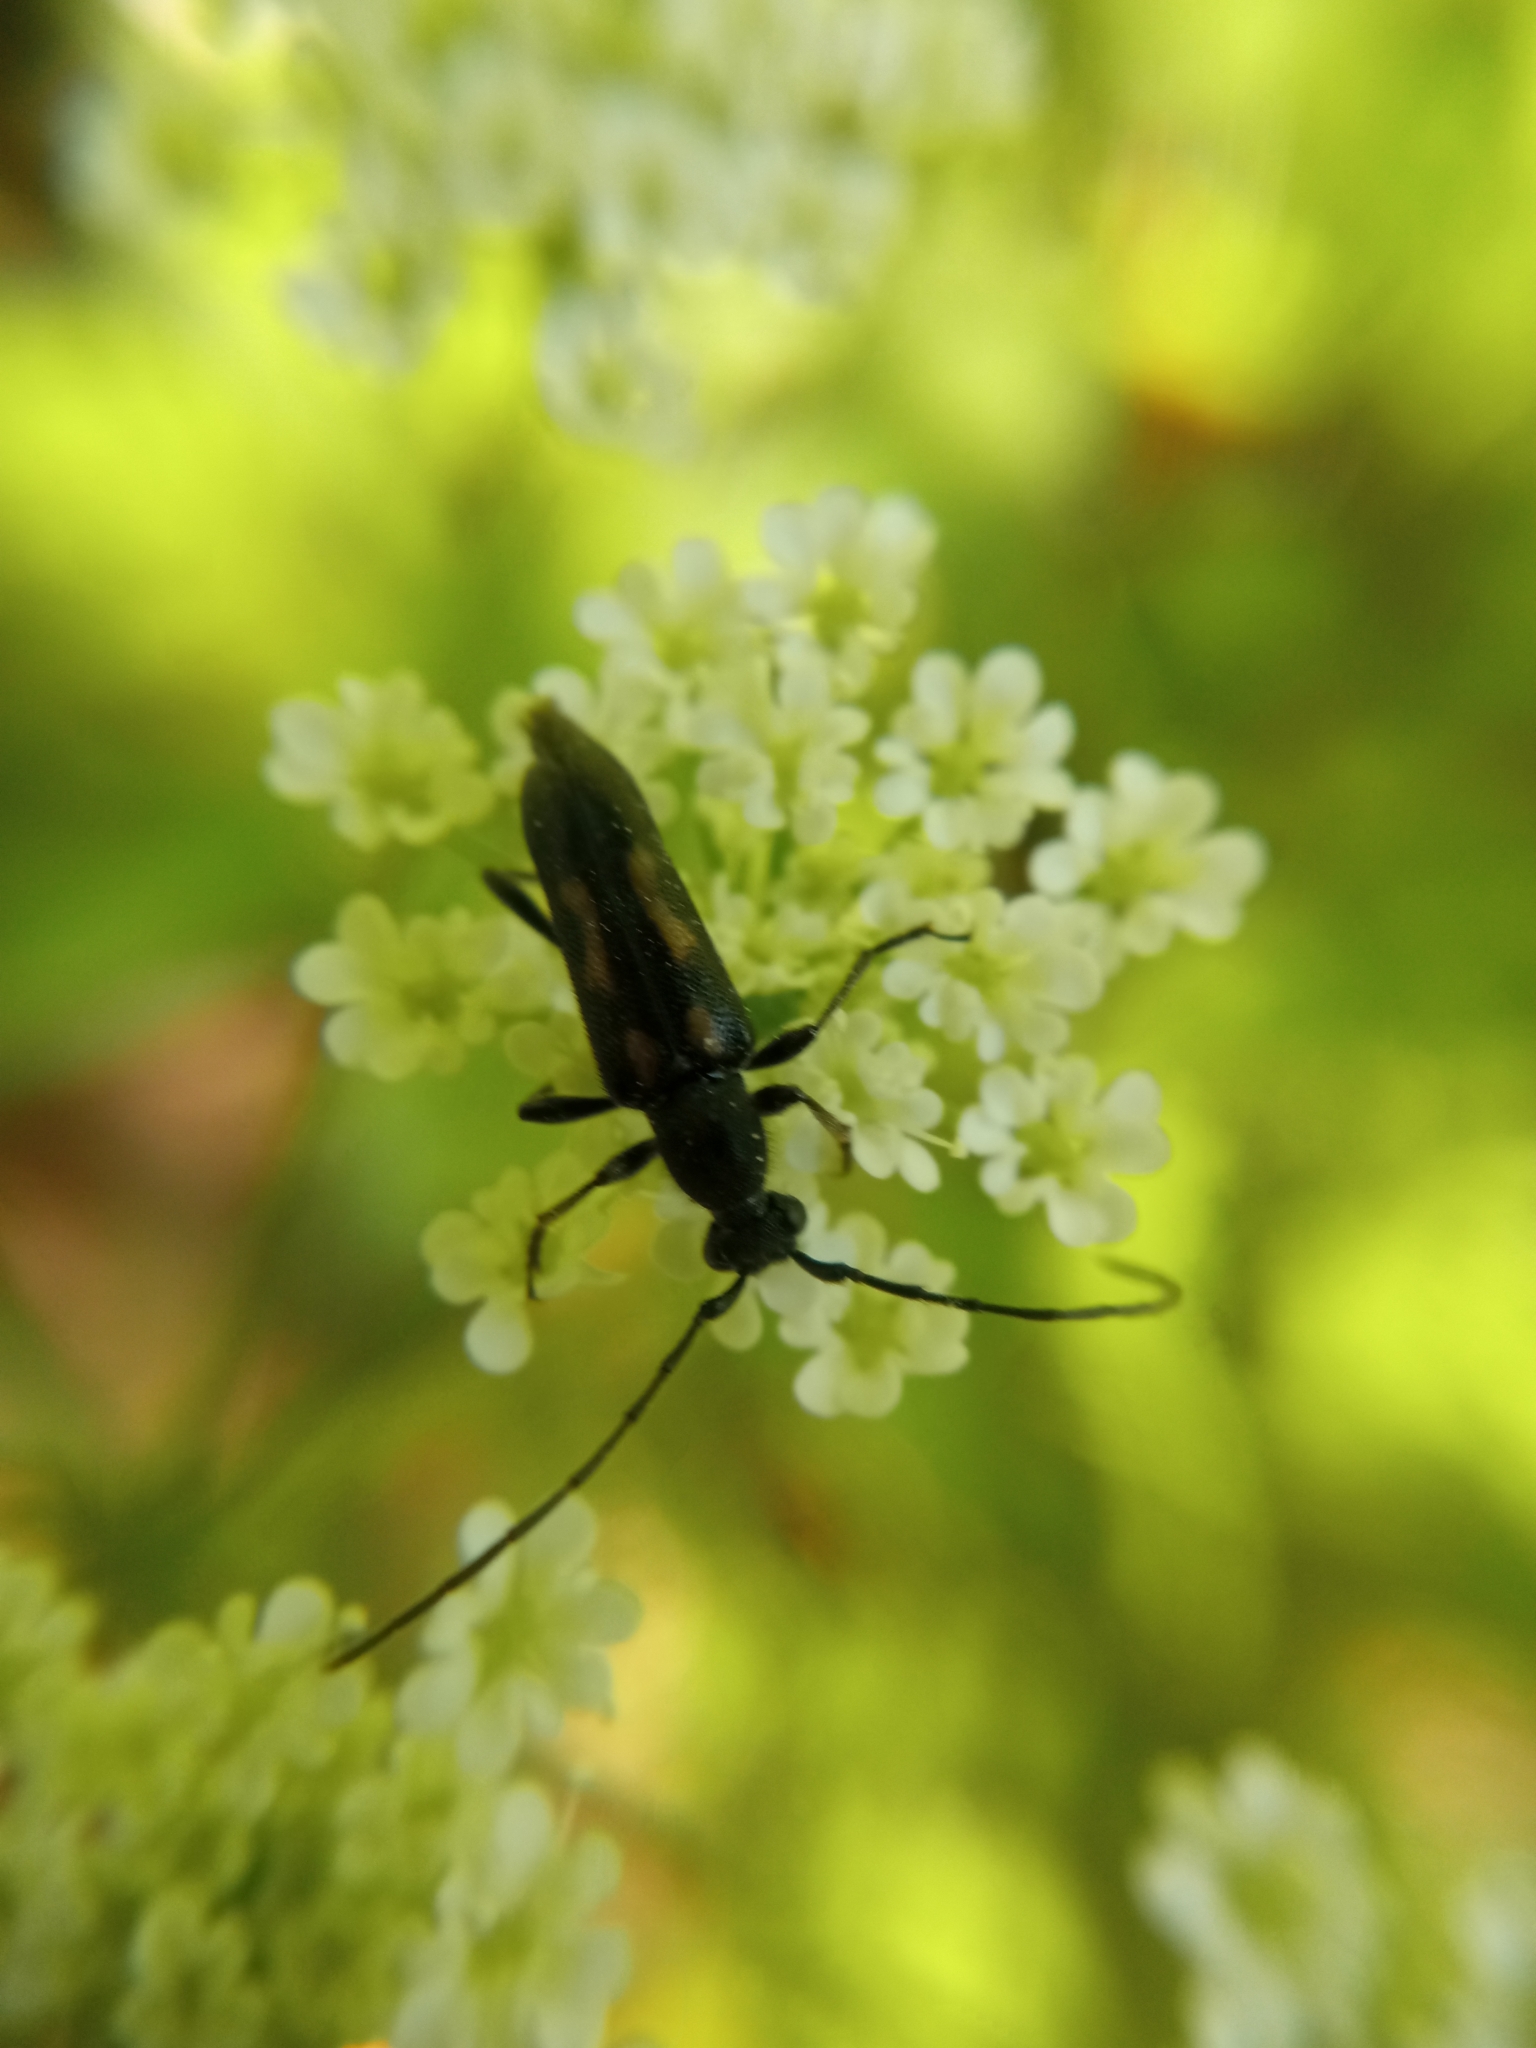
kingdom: Animalia
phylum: Arthropoda
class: Insecta
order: Coleoptera
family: Cerambycidae
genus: Anoplodera
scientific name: Anoplodera sexguttata
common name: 6 spotted longhorn
